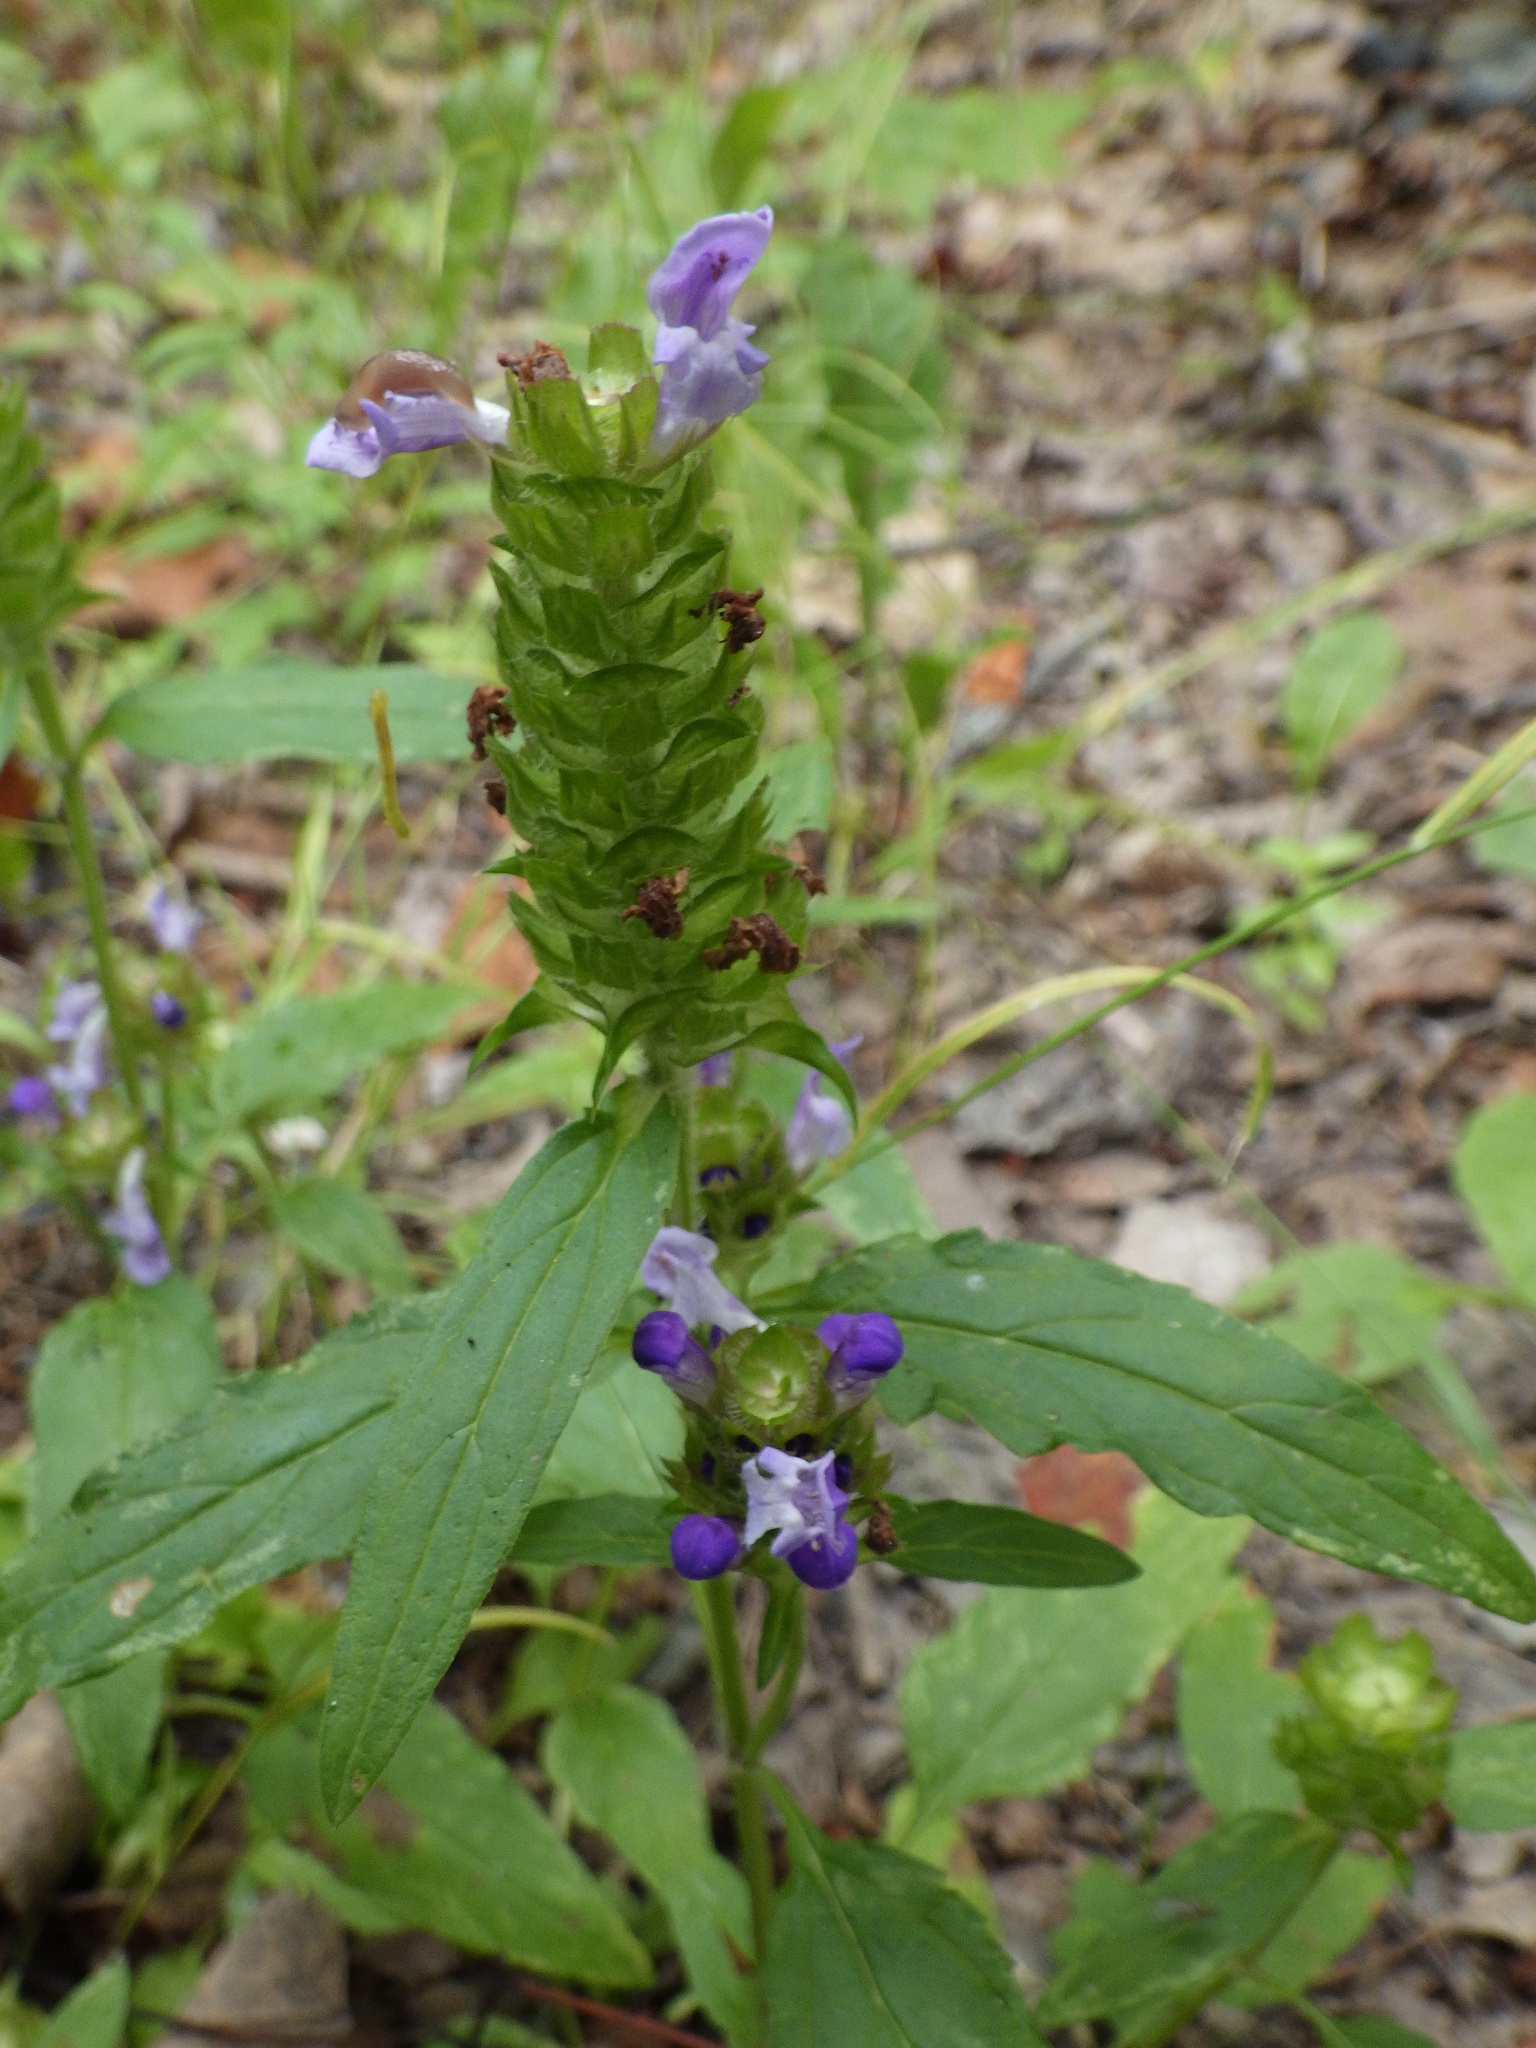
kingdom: Plantae
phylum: Tracheophyta
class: Magnoliopsida
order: Lamiales
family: Lamiaceae
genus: Prunella
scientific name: Prunella vulgaris
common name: Heal-all
